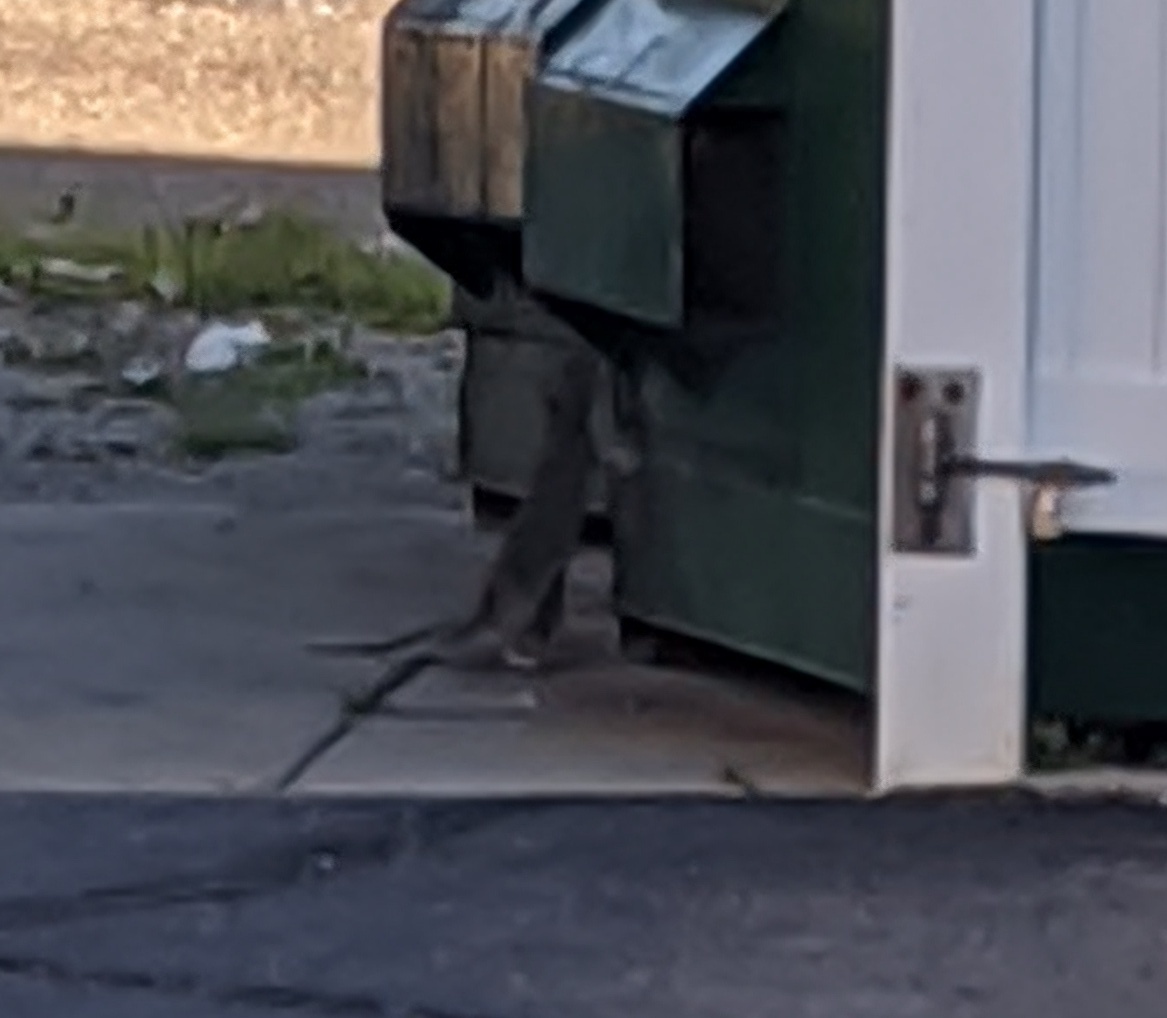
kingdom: Animalia
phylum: Chordata
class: Mammalia
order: Rodentia
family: Muridae
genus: Rattus
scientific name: Rattus norvegicus
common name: Brown rat
